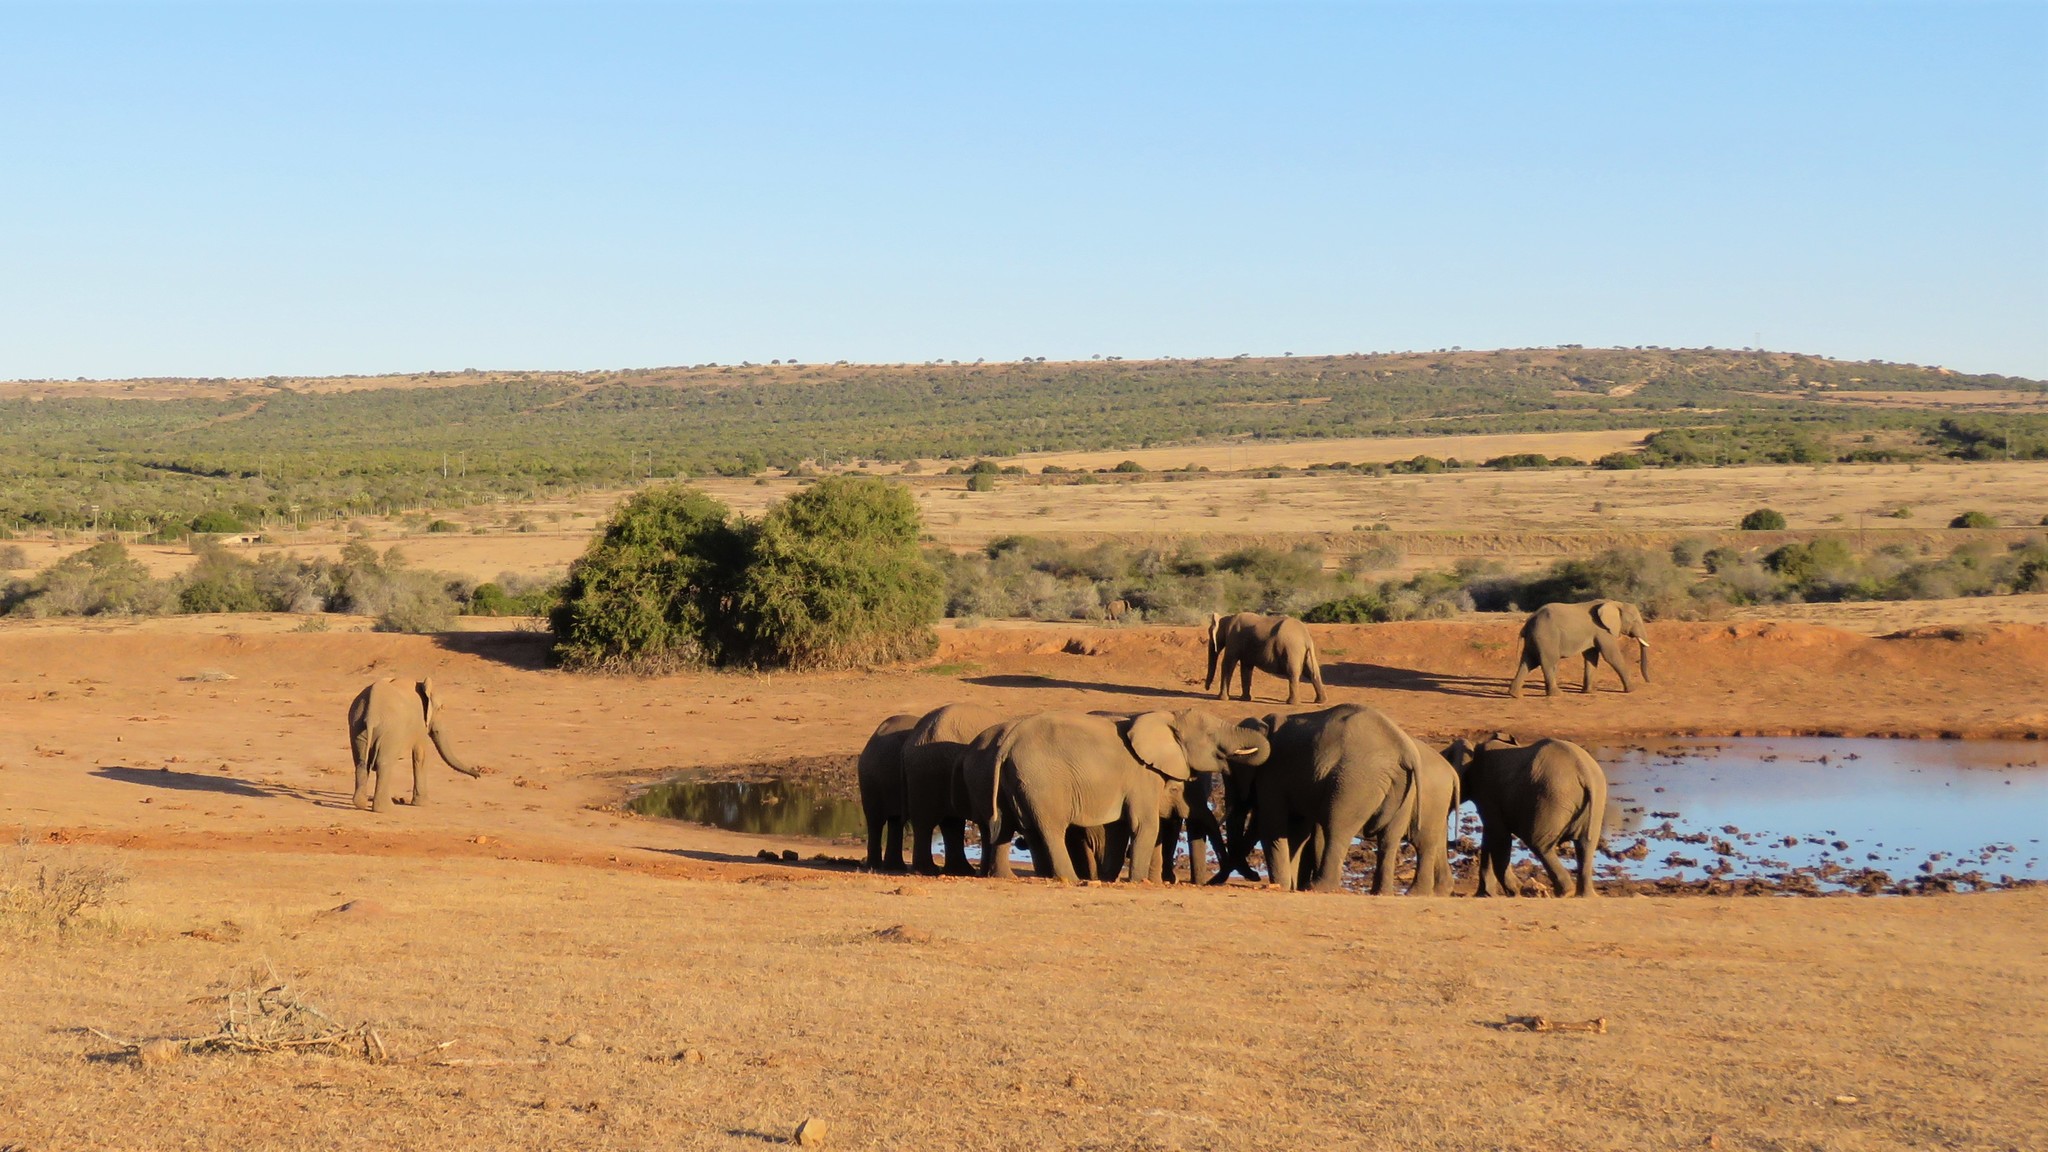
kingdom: Animalia
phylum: Chordata
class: Mammalia
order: Proboscidea
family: Elephantidae
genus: Loxodonta
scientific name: Loxodonta africana
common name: African elephant
